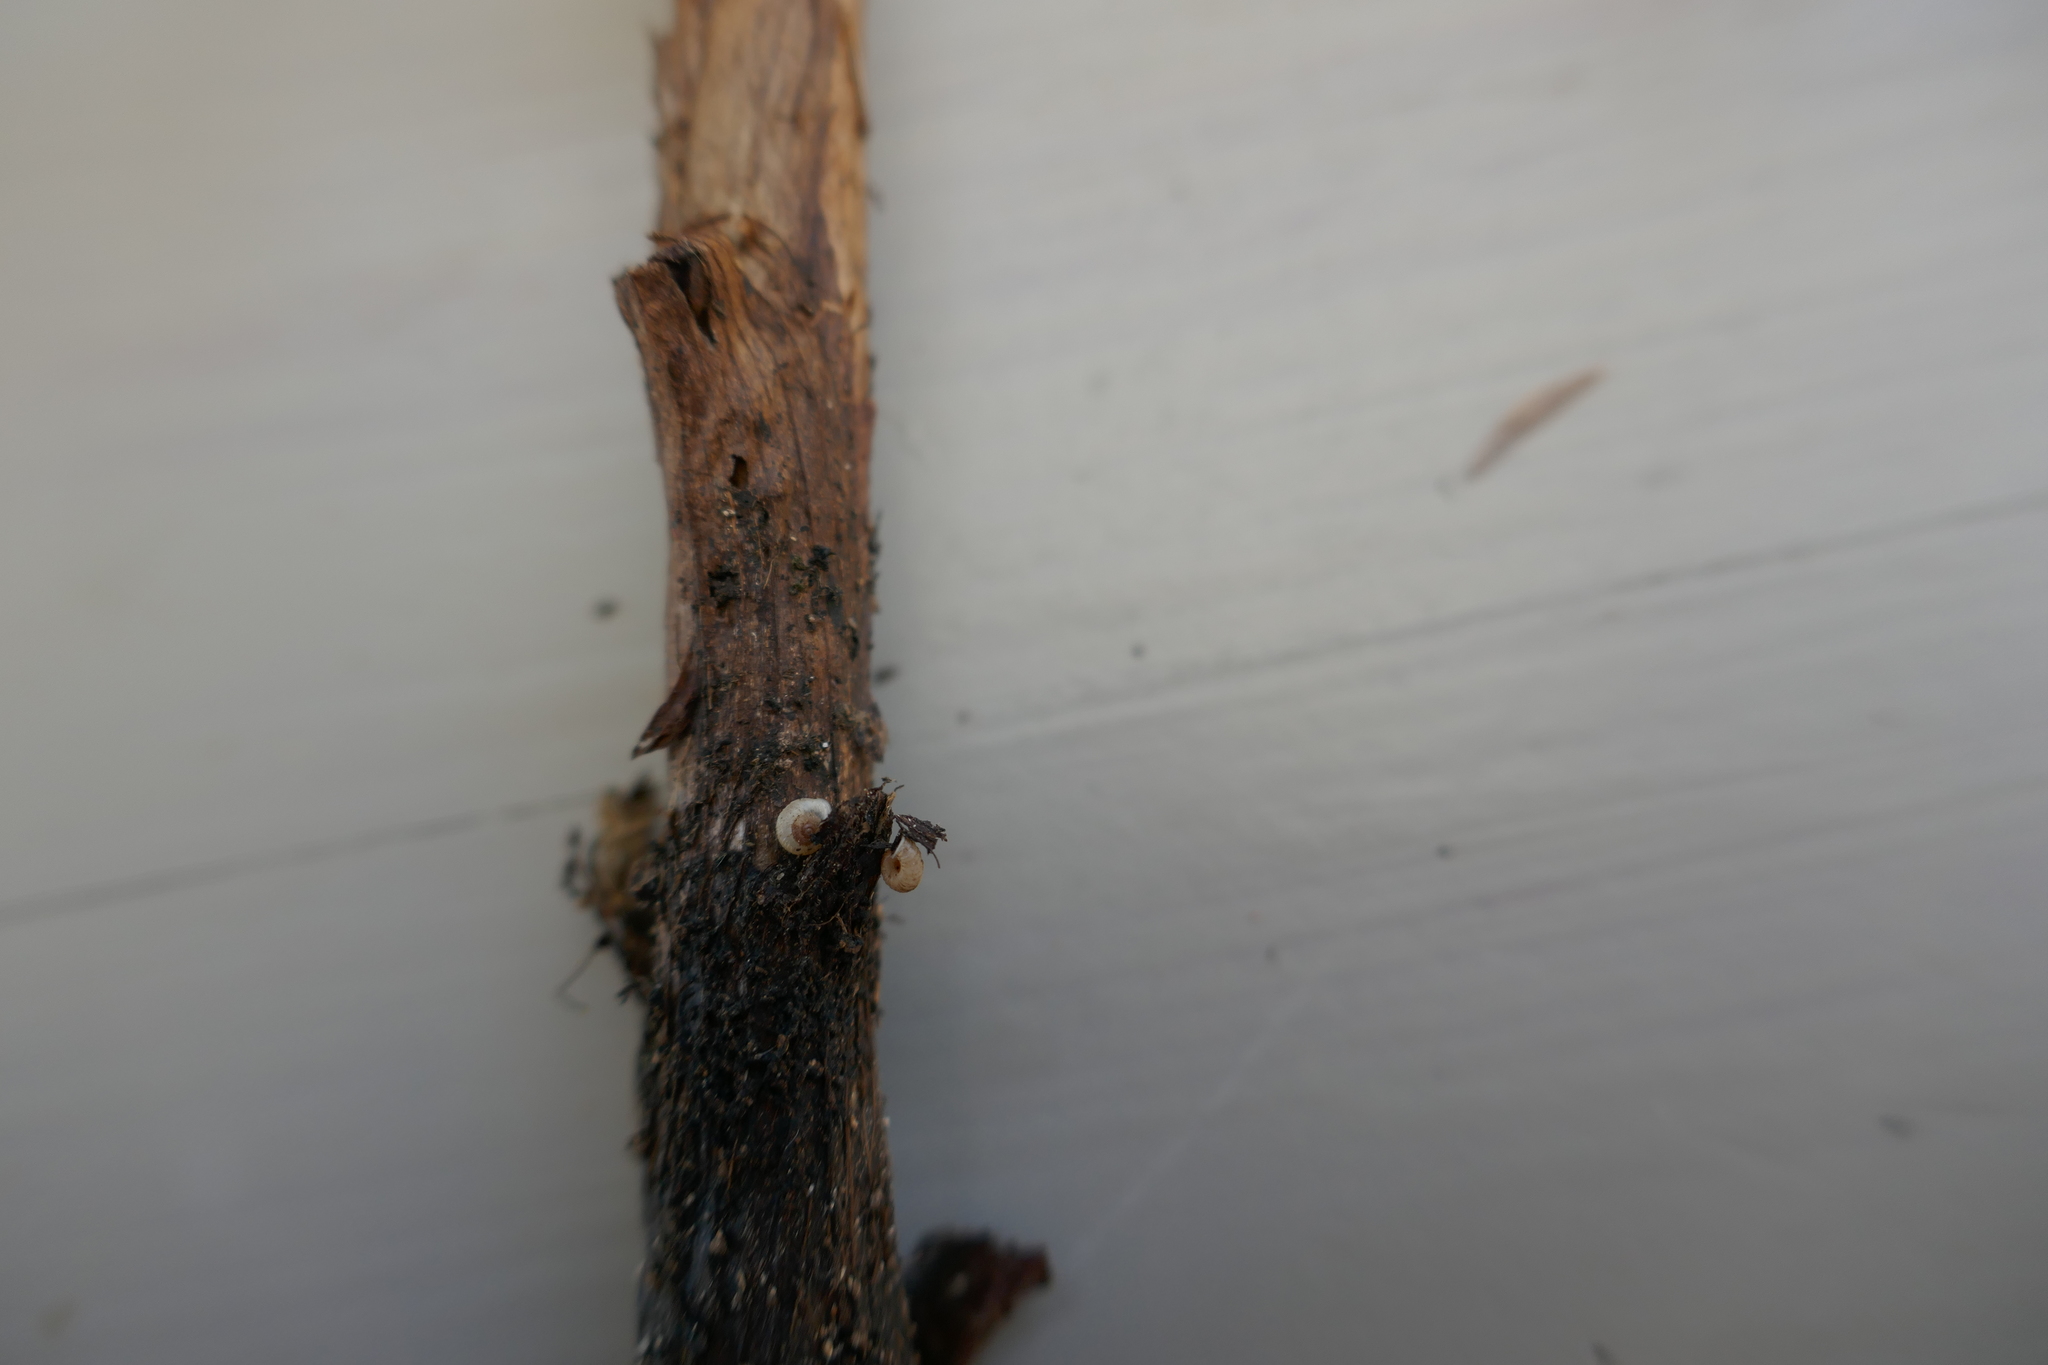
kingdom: Animalia
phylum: Mollusca
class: Gastropoda
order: Stylommatophora
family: Valloniidae
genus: Vallonia
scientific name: Vallonia costata
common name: Ribbed grass snail
